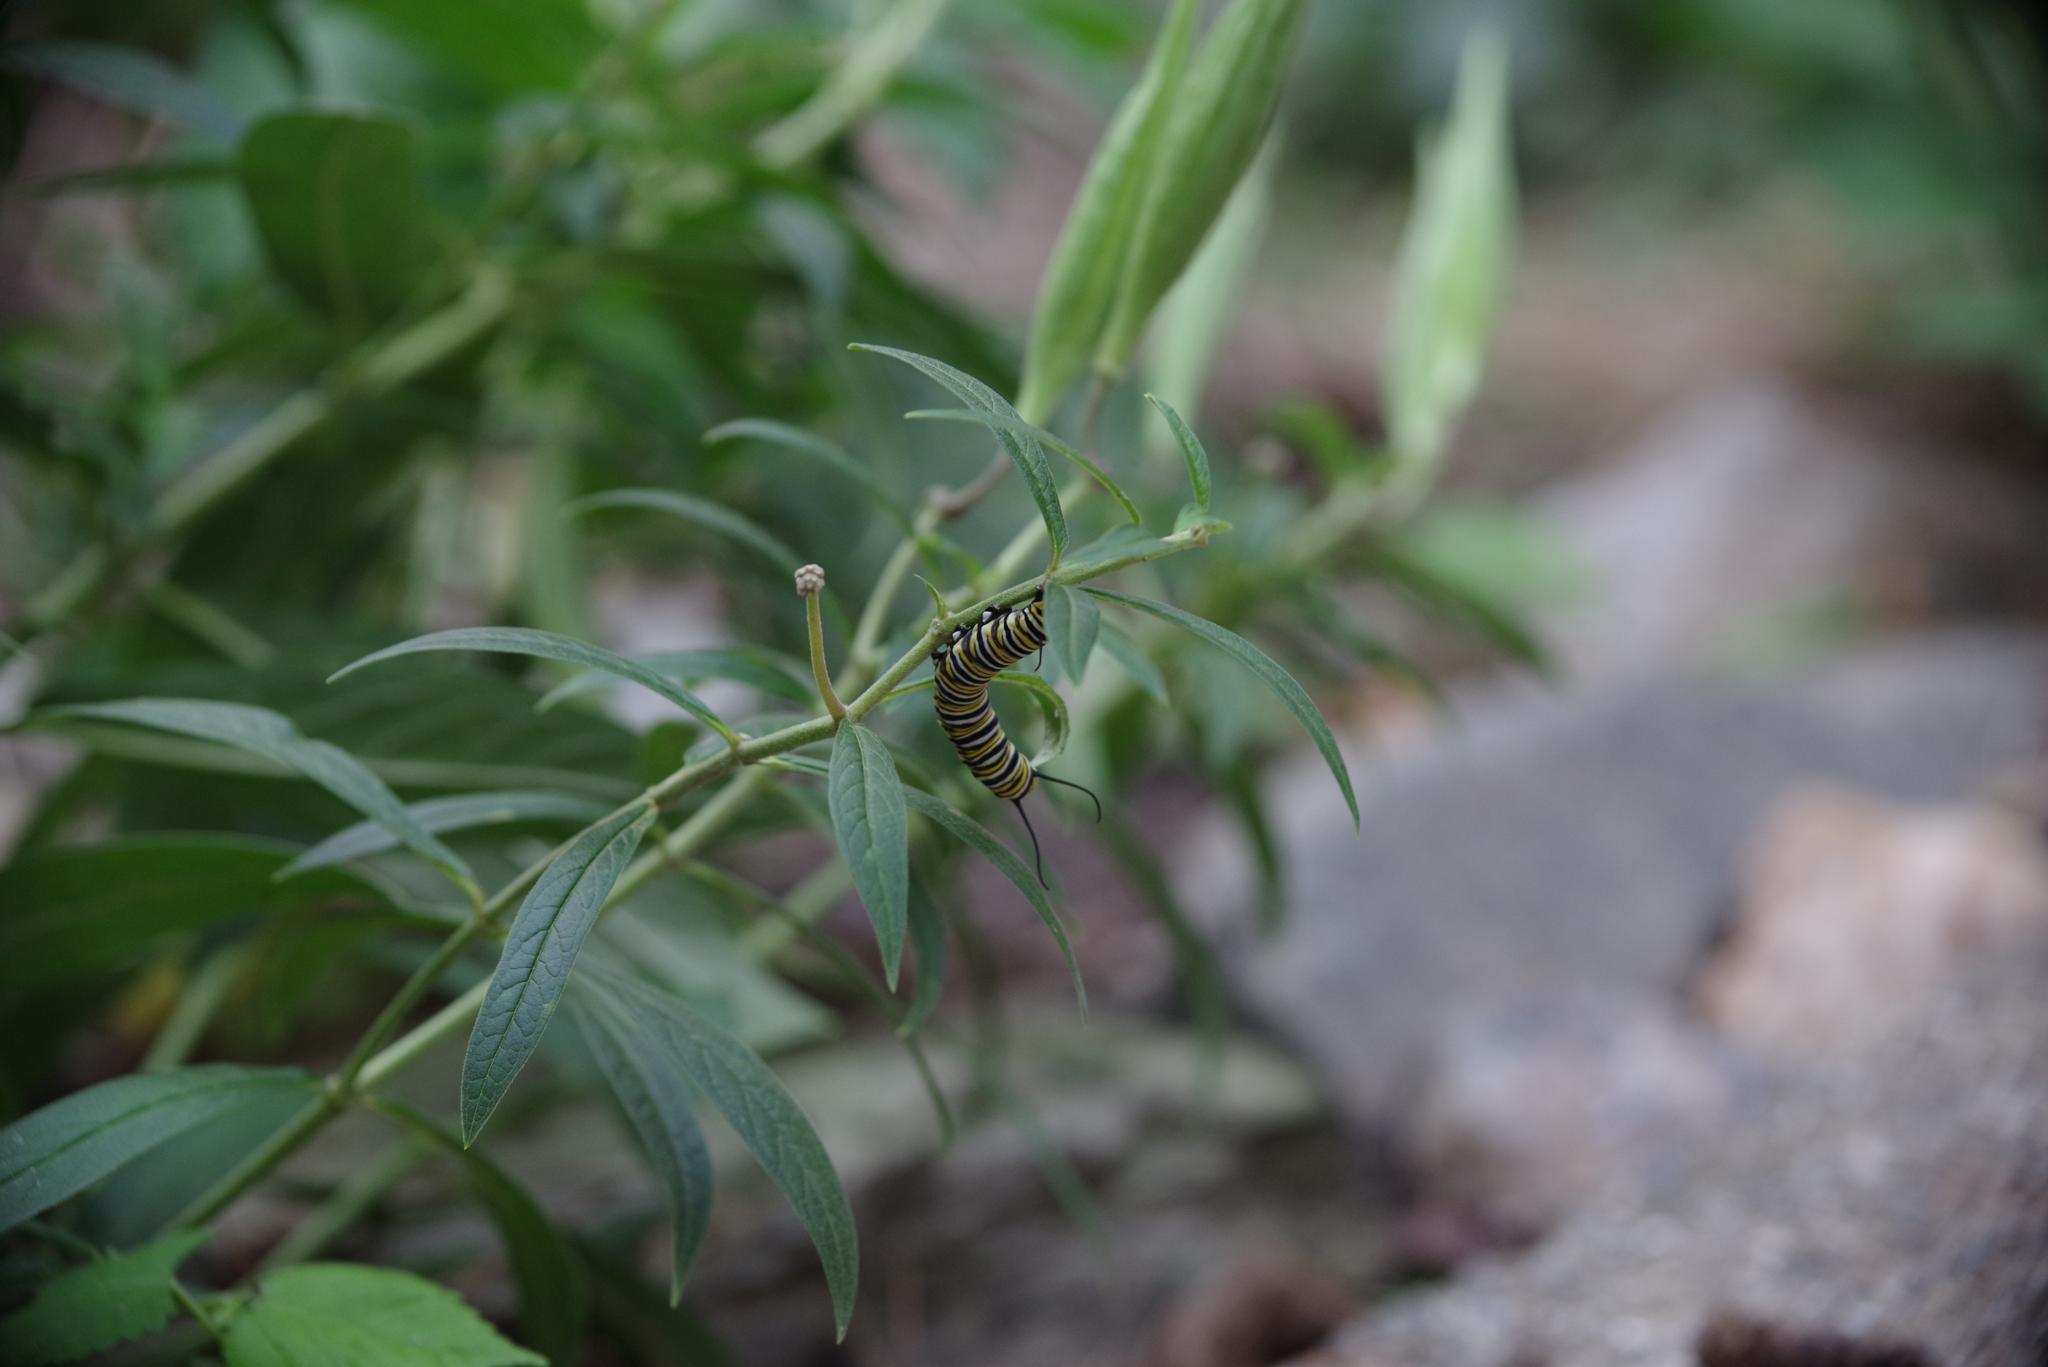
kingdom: Animalia
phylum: Arthropoda
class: Insecta
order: Lepidoptera
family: Nymphalidae
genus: Danaus
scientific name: Danaus plexippus
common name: Monarch
